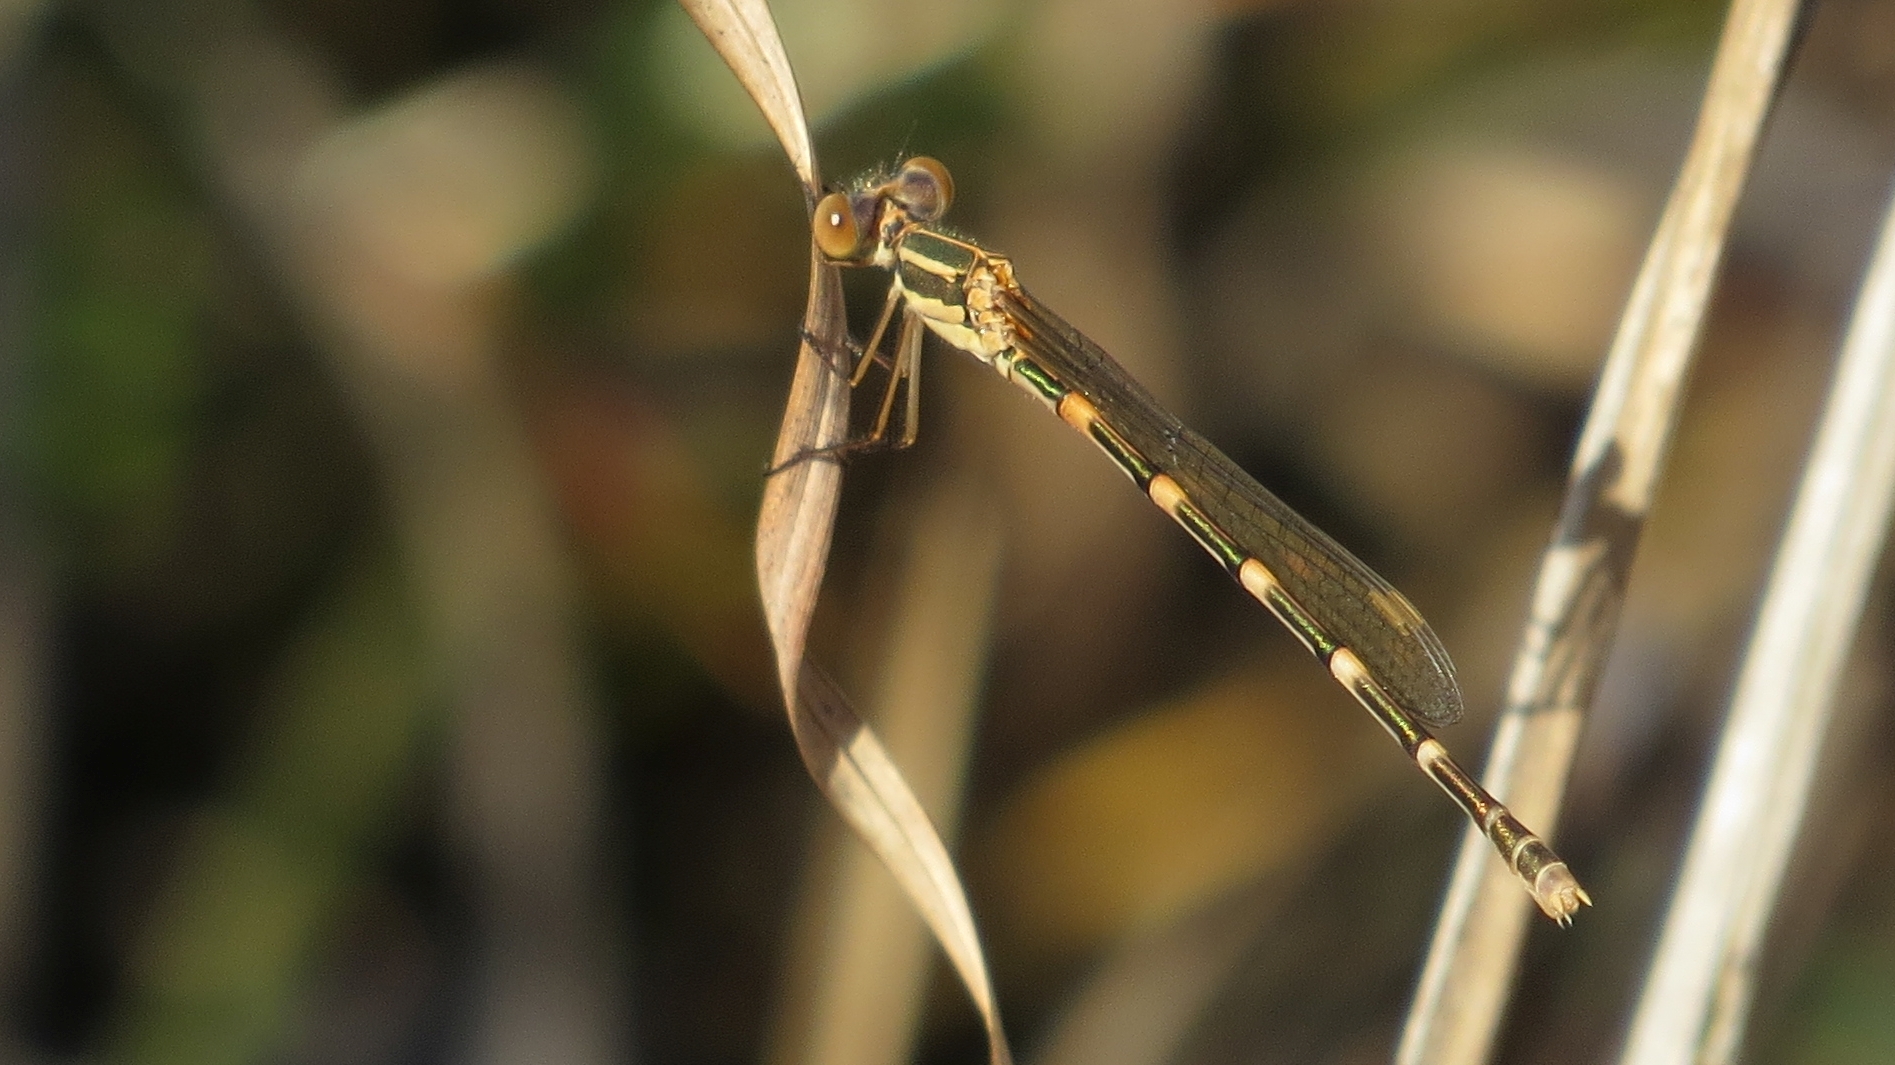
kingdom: Animalia
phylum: Arthropoda
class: Insecta
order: Odonata
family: Lestidae
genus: Austrolestes
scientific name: Austrolestes leda
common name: Wandering ringtail
